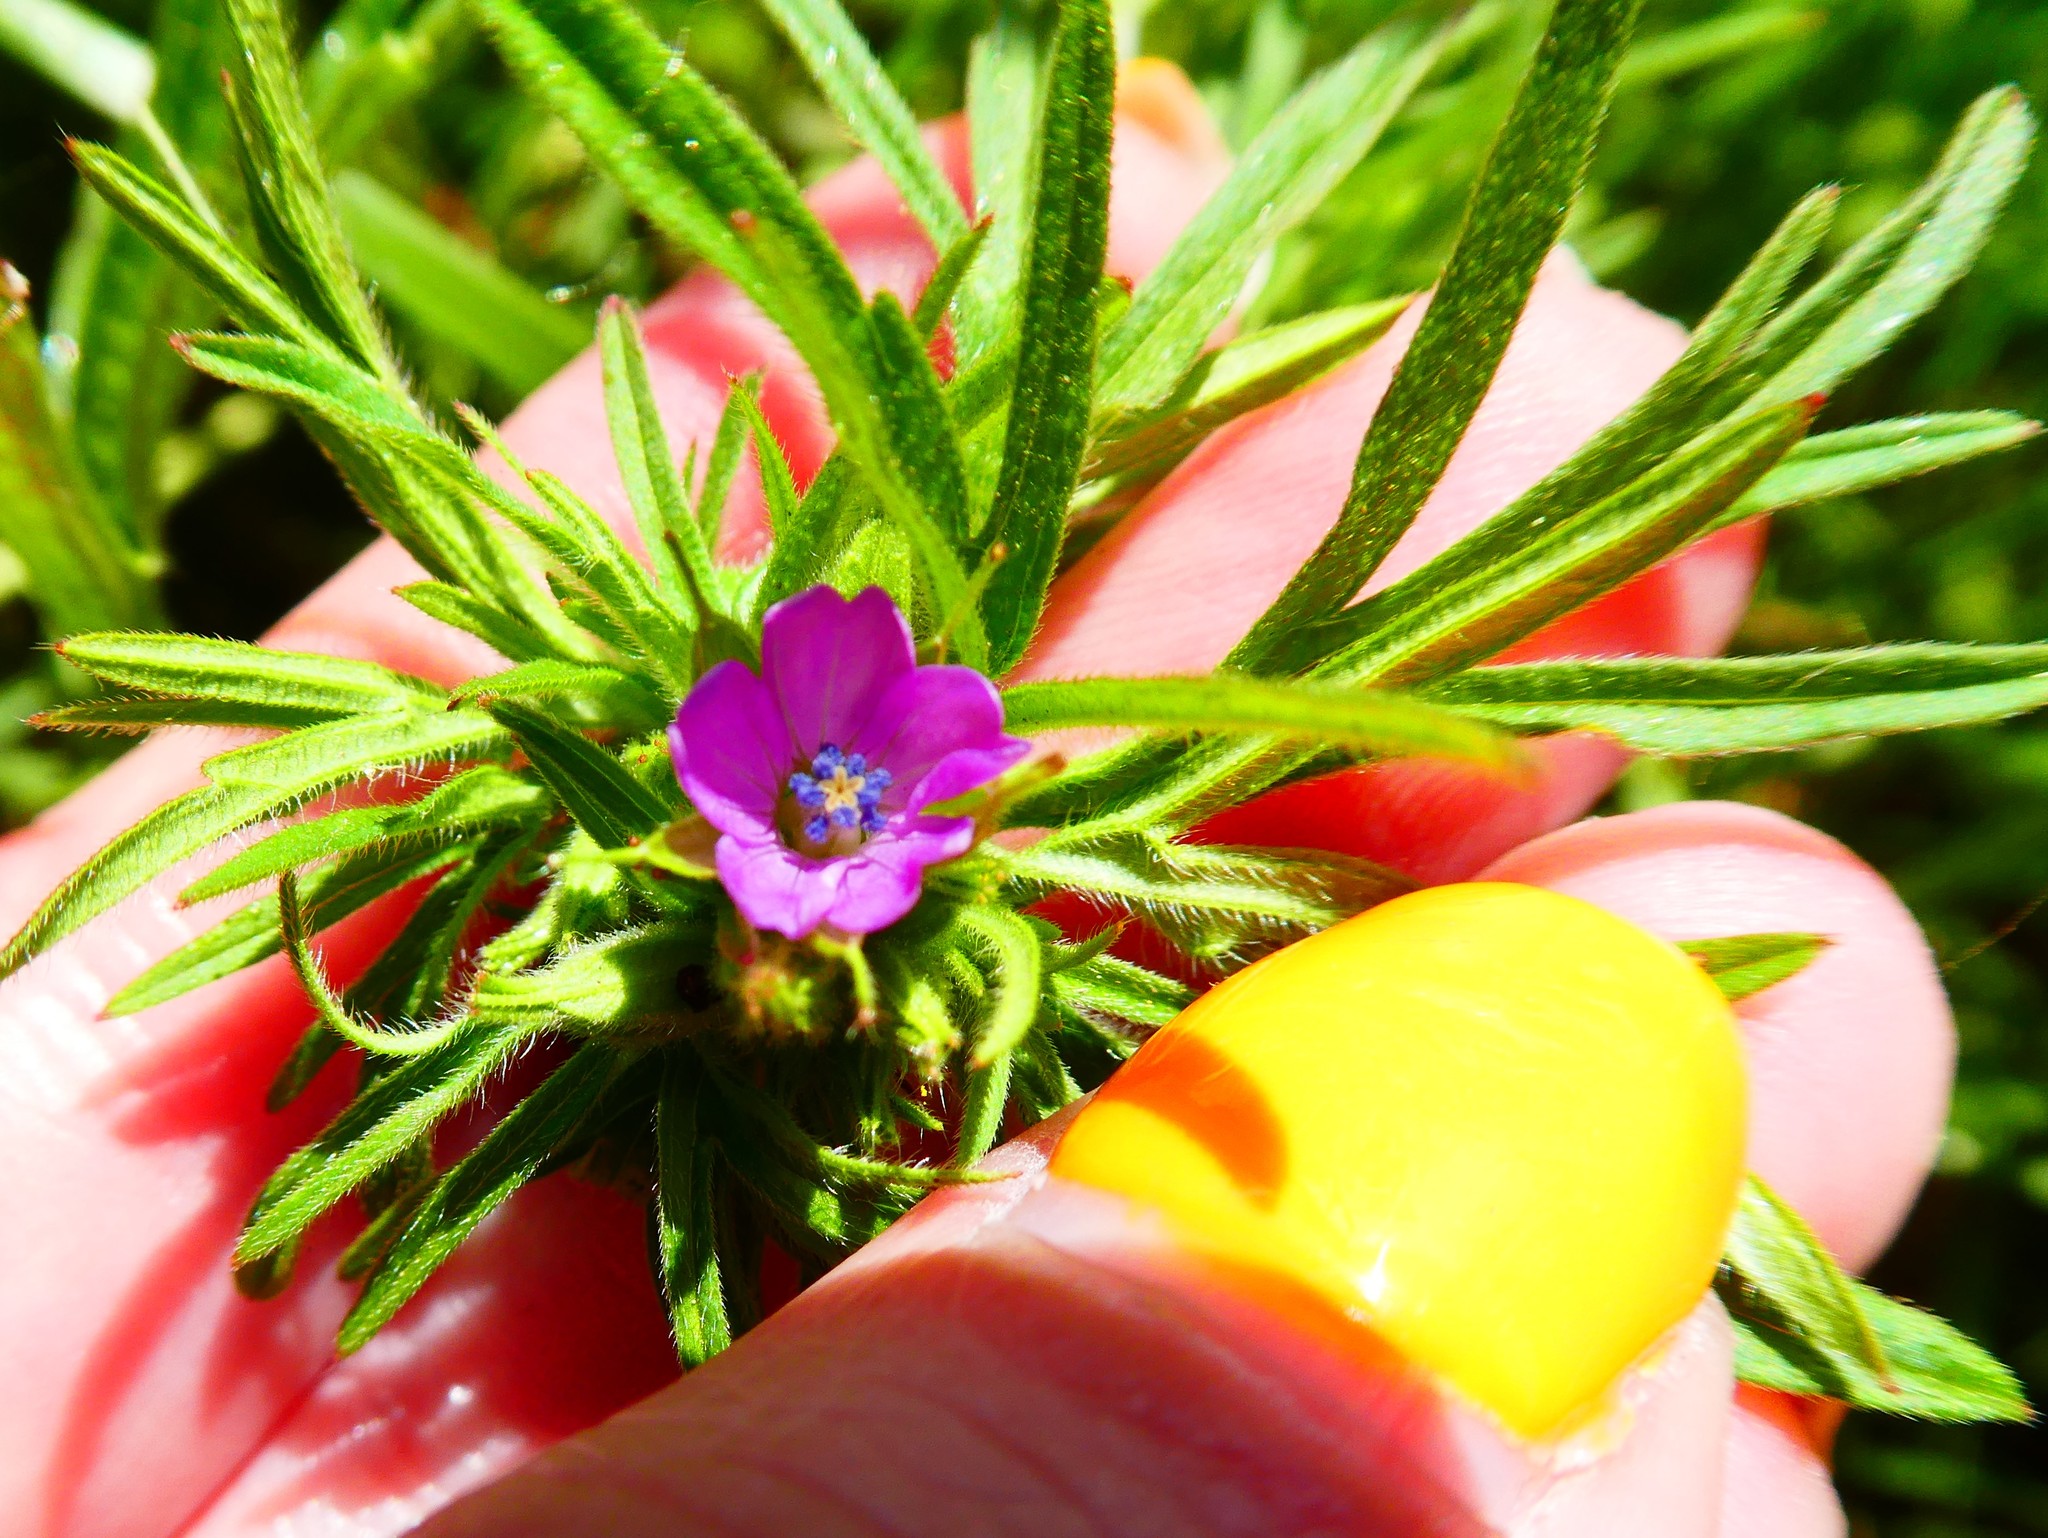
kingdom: Plantae
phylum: Tracheophyta
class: Magnoliopsida
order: Geraniales
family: Geraniaceae
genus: Geranium
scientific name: Geranium dissectum
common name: Cut-leaved crane's-bill
